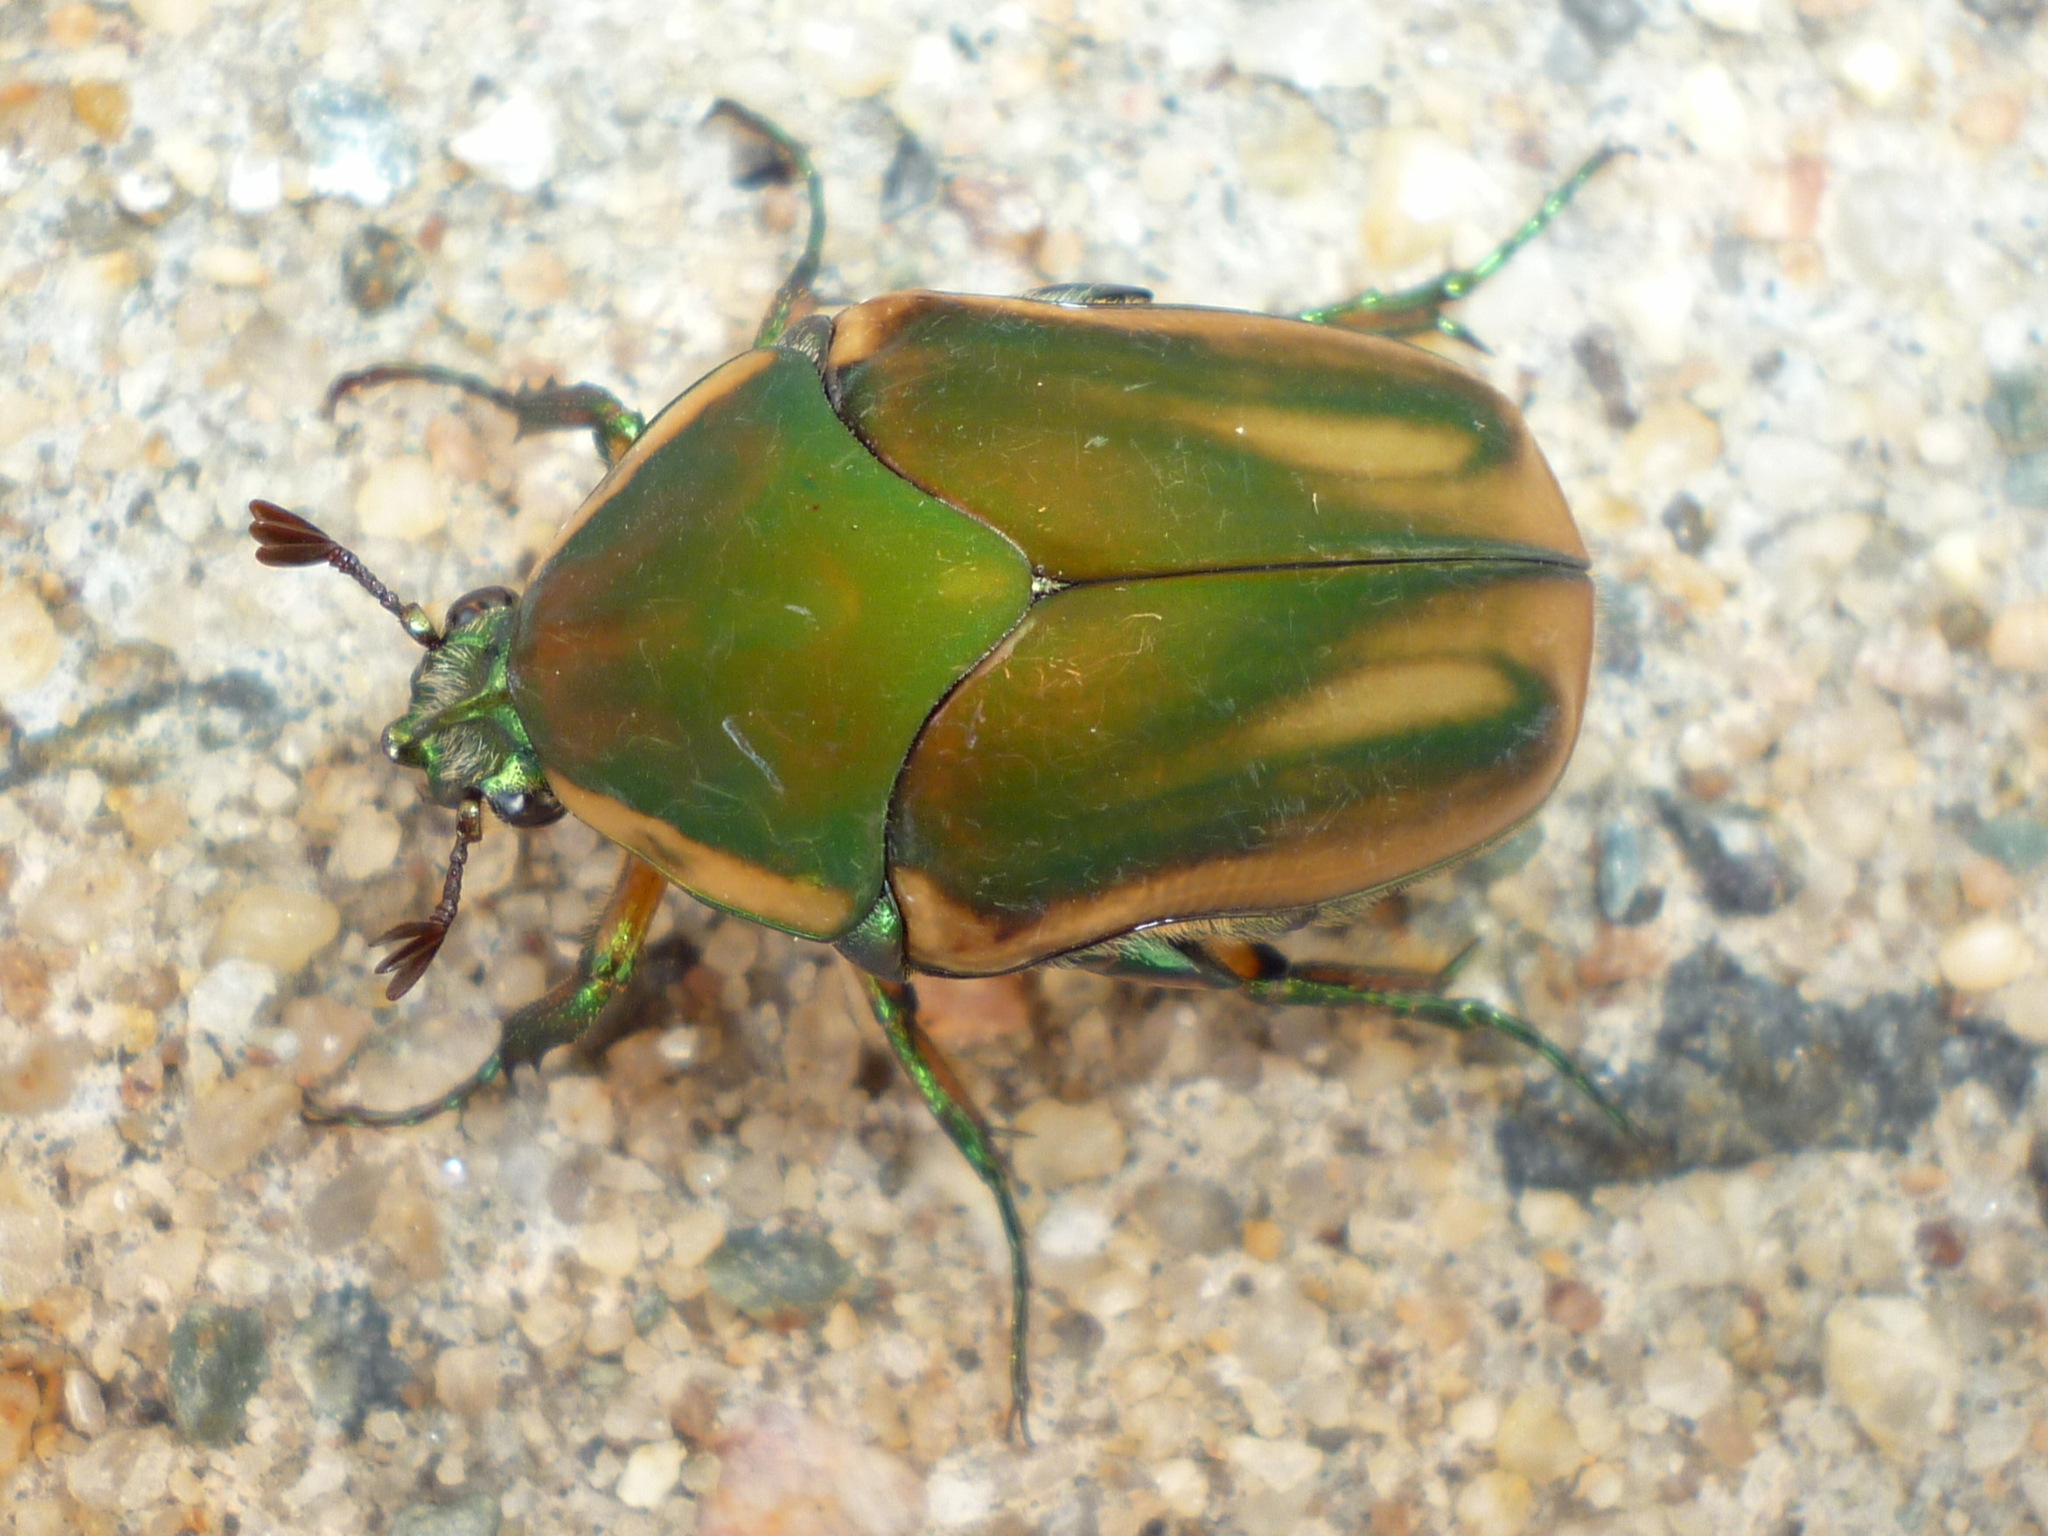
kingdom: Animalia
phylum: Arthropoda
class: Insecta
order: Coleoptera
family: Scarabaeidae
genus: Cotinis
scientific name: Cotinis nitida
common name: Common green june beetle
